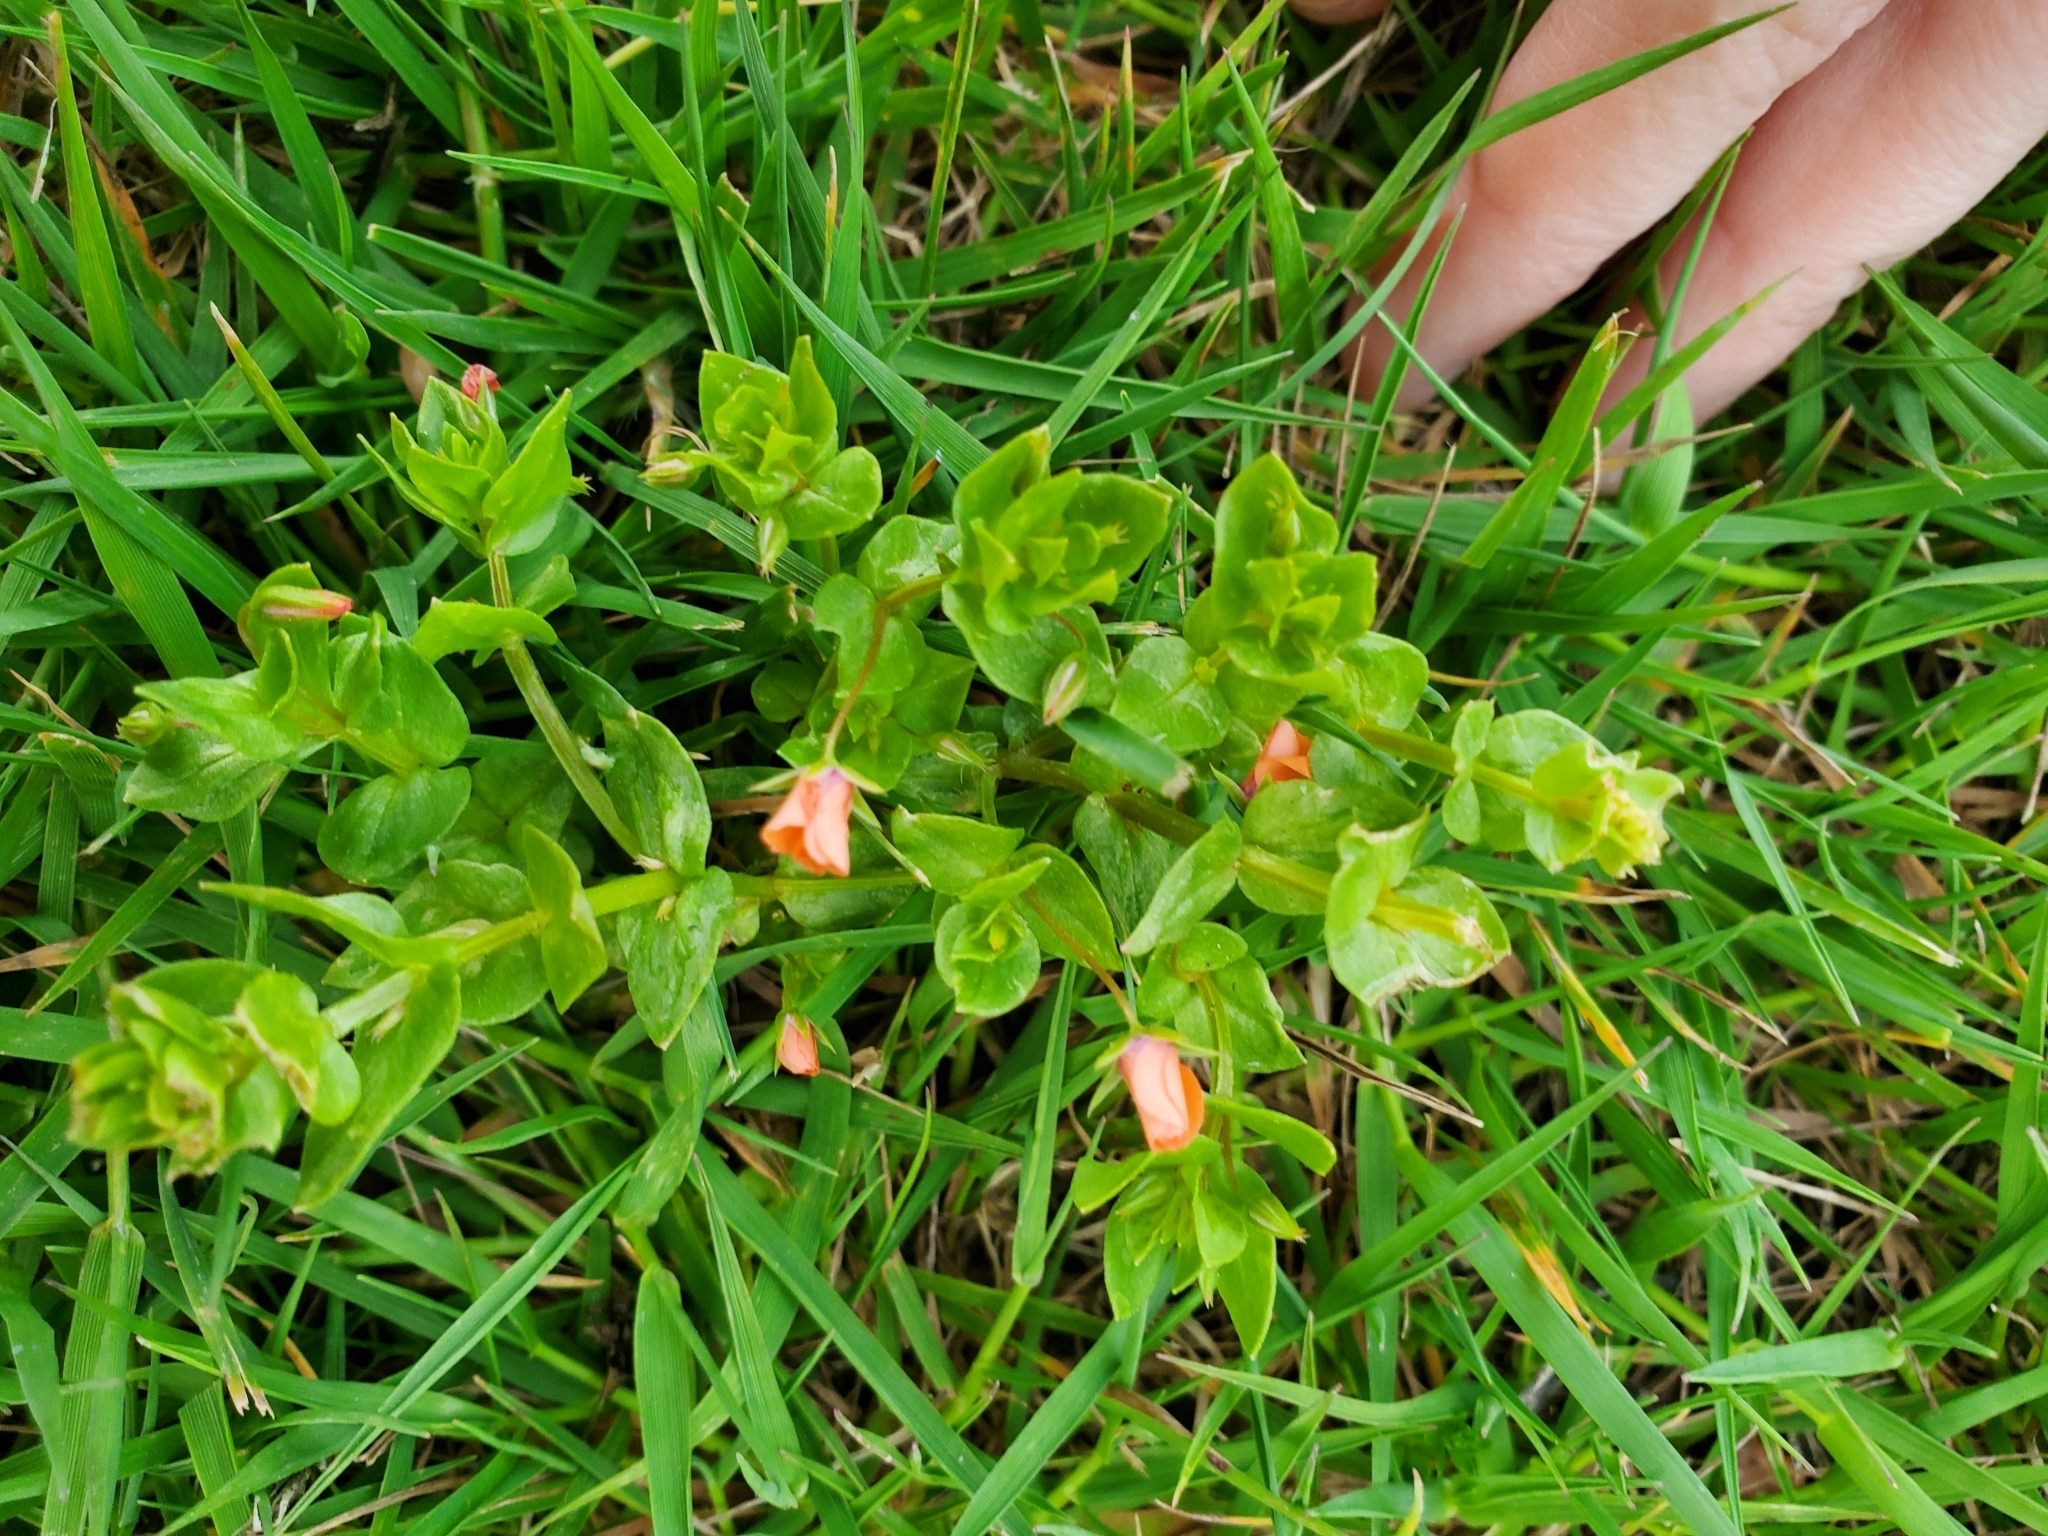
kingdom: Plantae
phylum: Tracheophyta
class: Magnoliopsida
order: Ericales
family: Primulaceae
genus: Lysimachia
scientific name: Lysimachia arvensis
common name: Scarlet pimpernel
